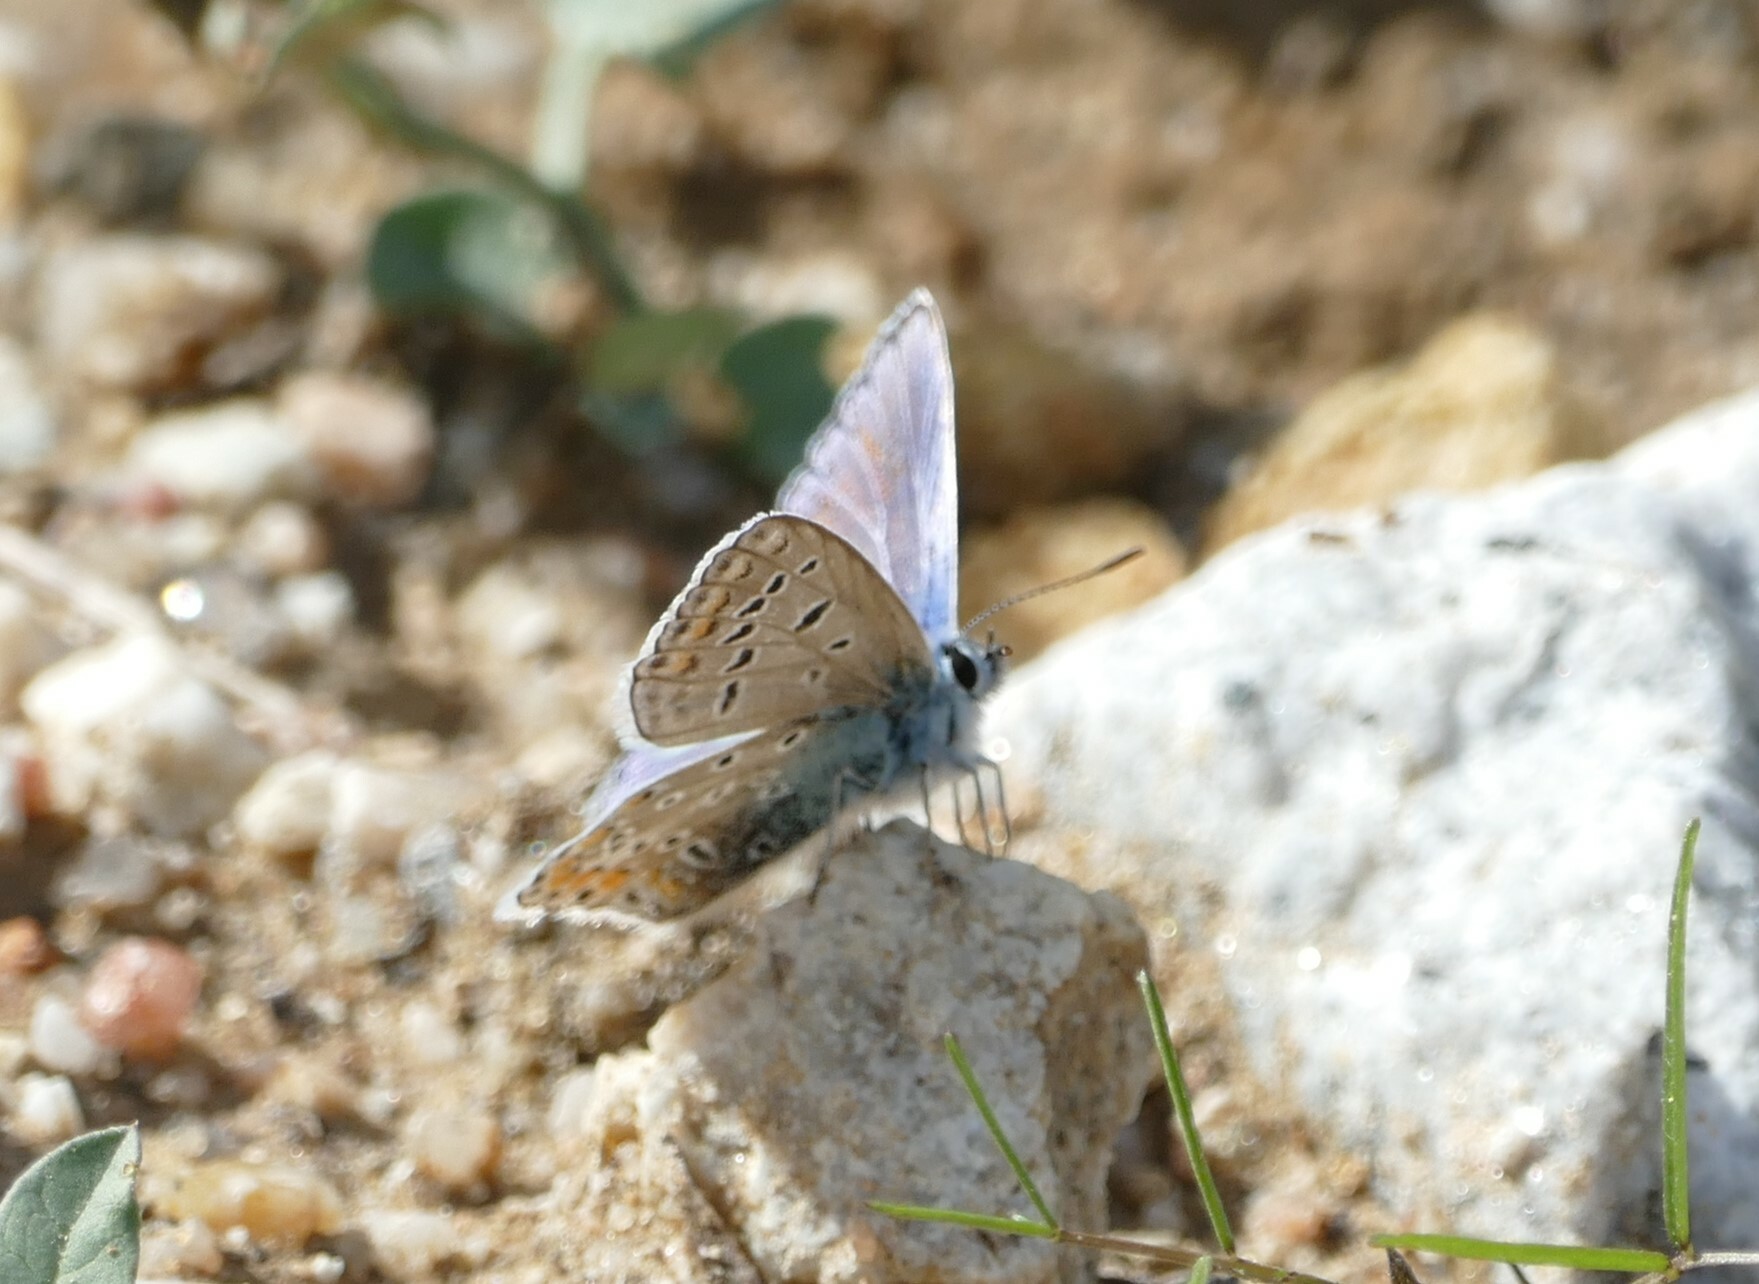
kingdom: Animalia
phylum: Arthropoda
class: Insecta
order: Lepidoptera
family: Lycaenidae
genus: Polyommatus
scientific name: Polyommatus icarus
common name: Common blue
